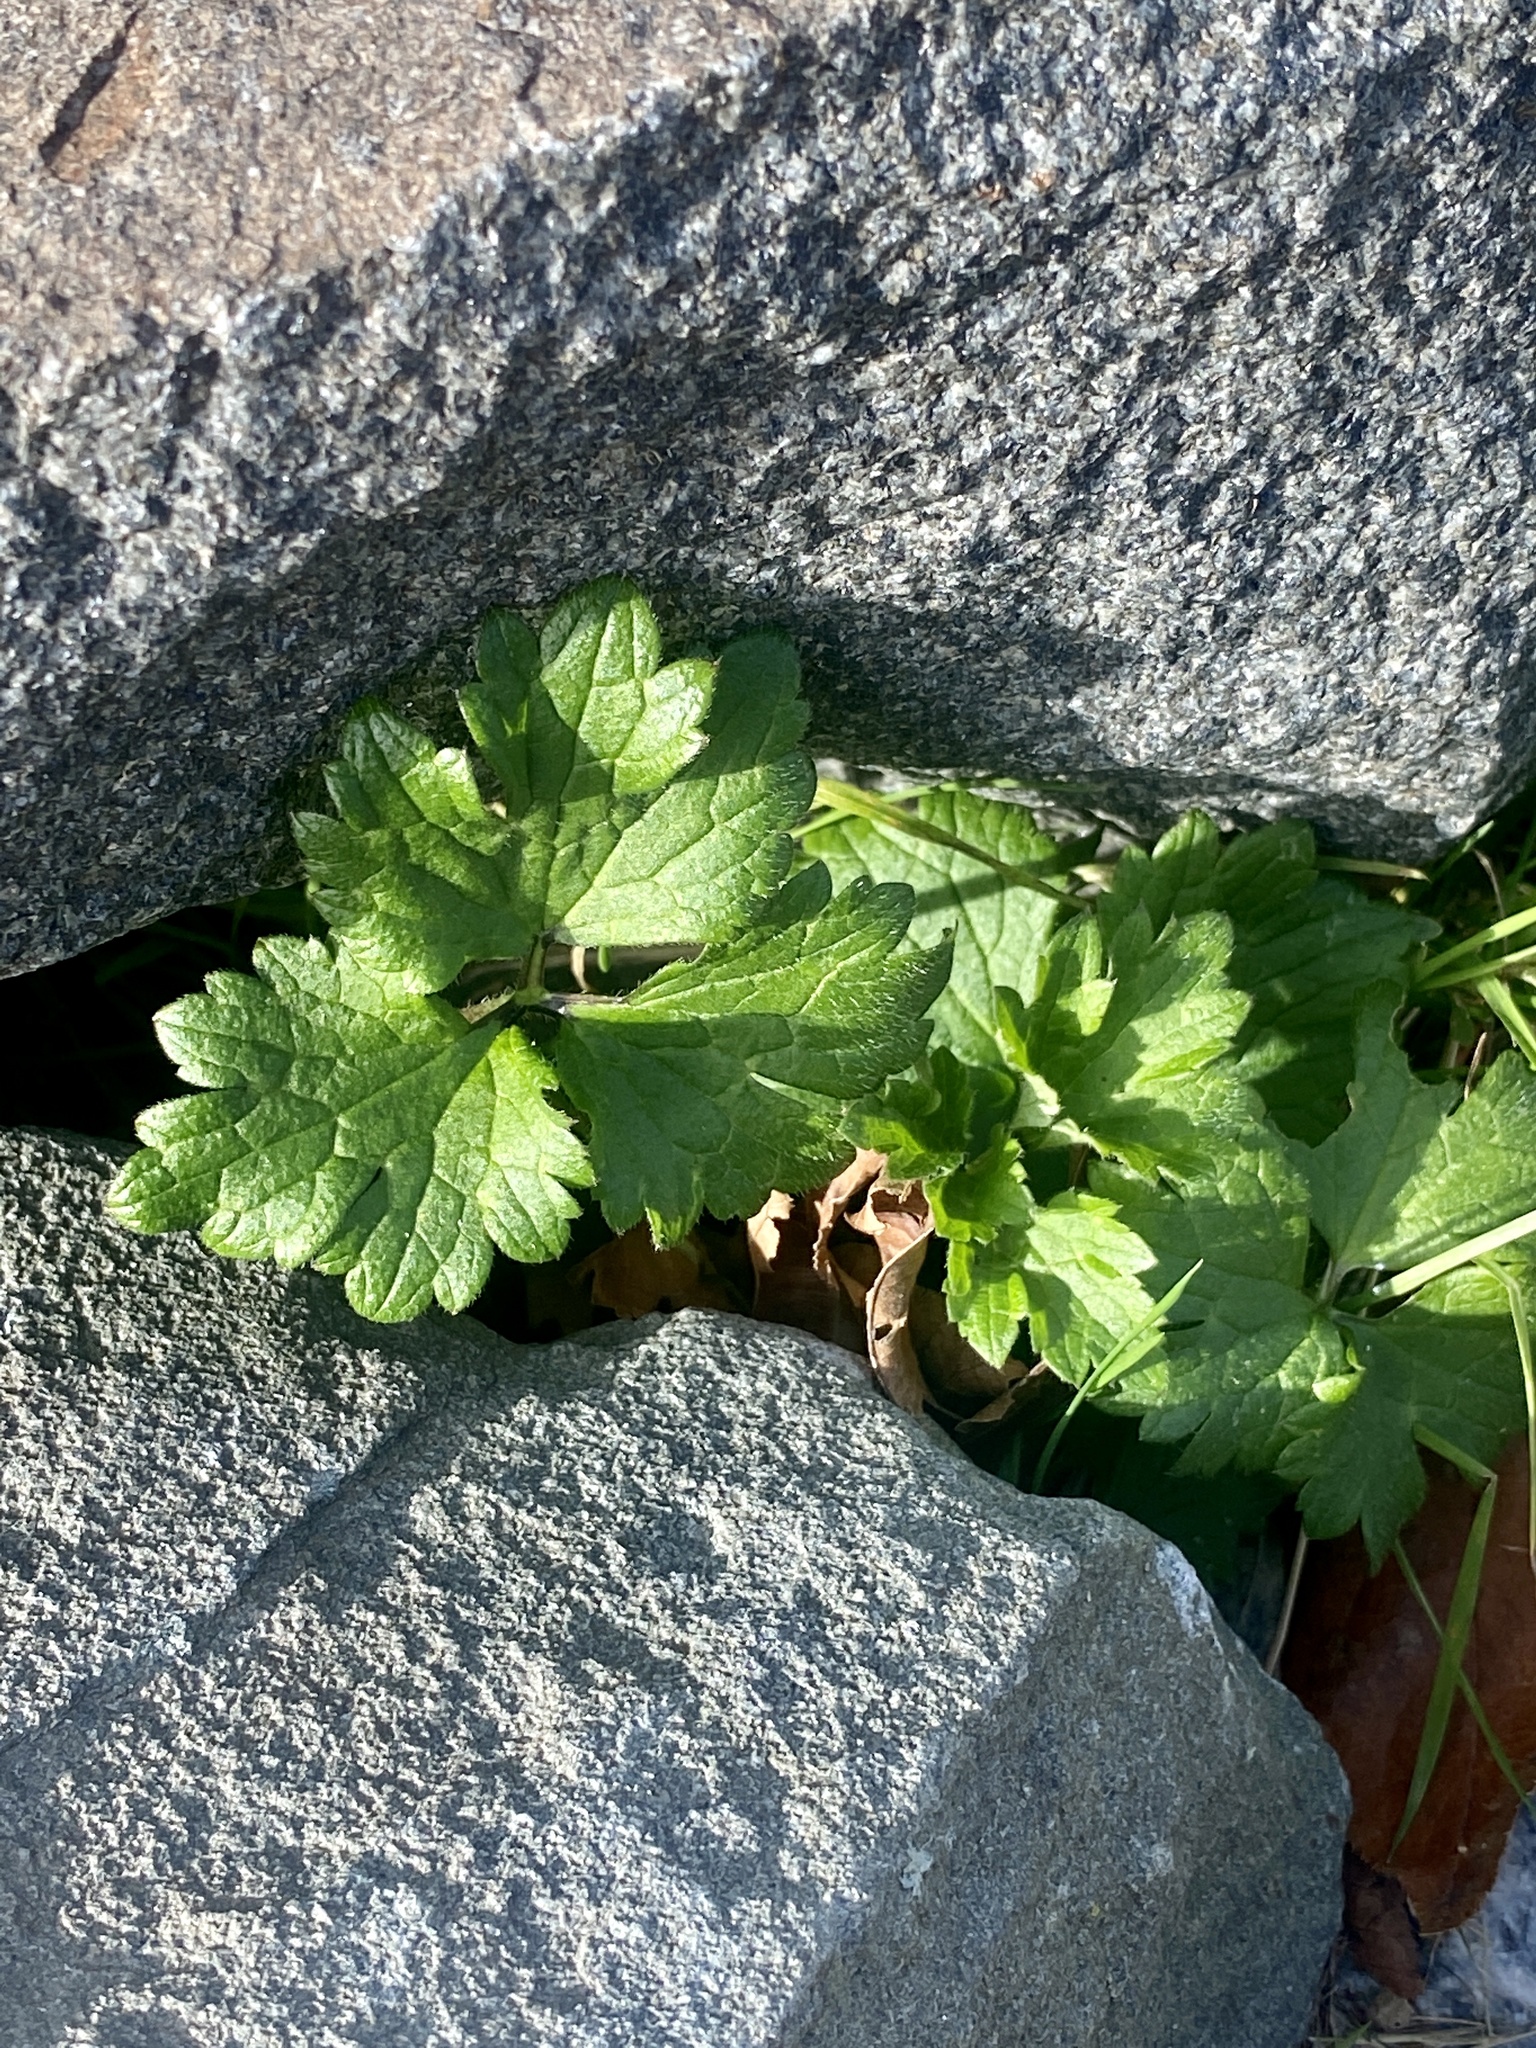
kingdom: Plantae
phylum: Tracheophyta
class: Magnoliopsida
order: Ranunculales
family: Ranunculaceae
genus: Ranunculus
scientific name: Ranunculus repens
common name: Creeping buttercup
